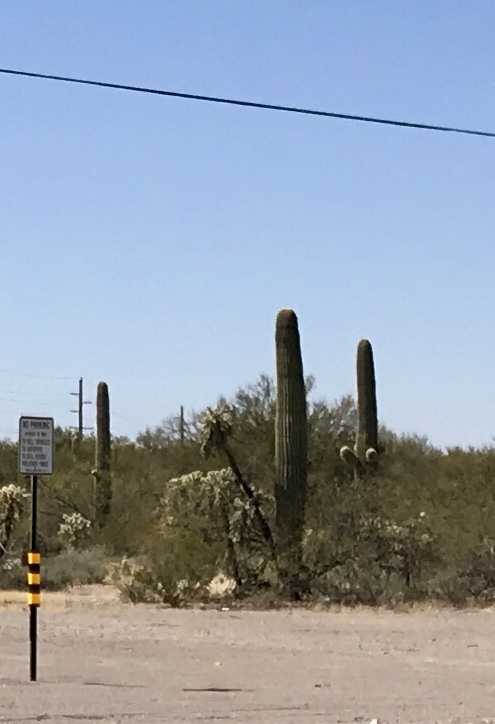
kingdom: Plantae
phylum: Tracheophyta
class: Magnoliopsida
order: Caryophyllales
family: Cactaceae
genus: Carnegiea
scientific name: Carnegiea gigantea
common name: Saguaro
